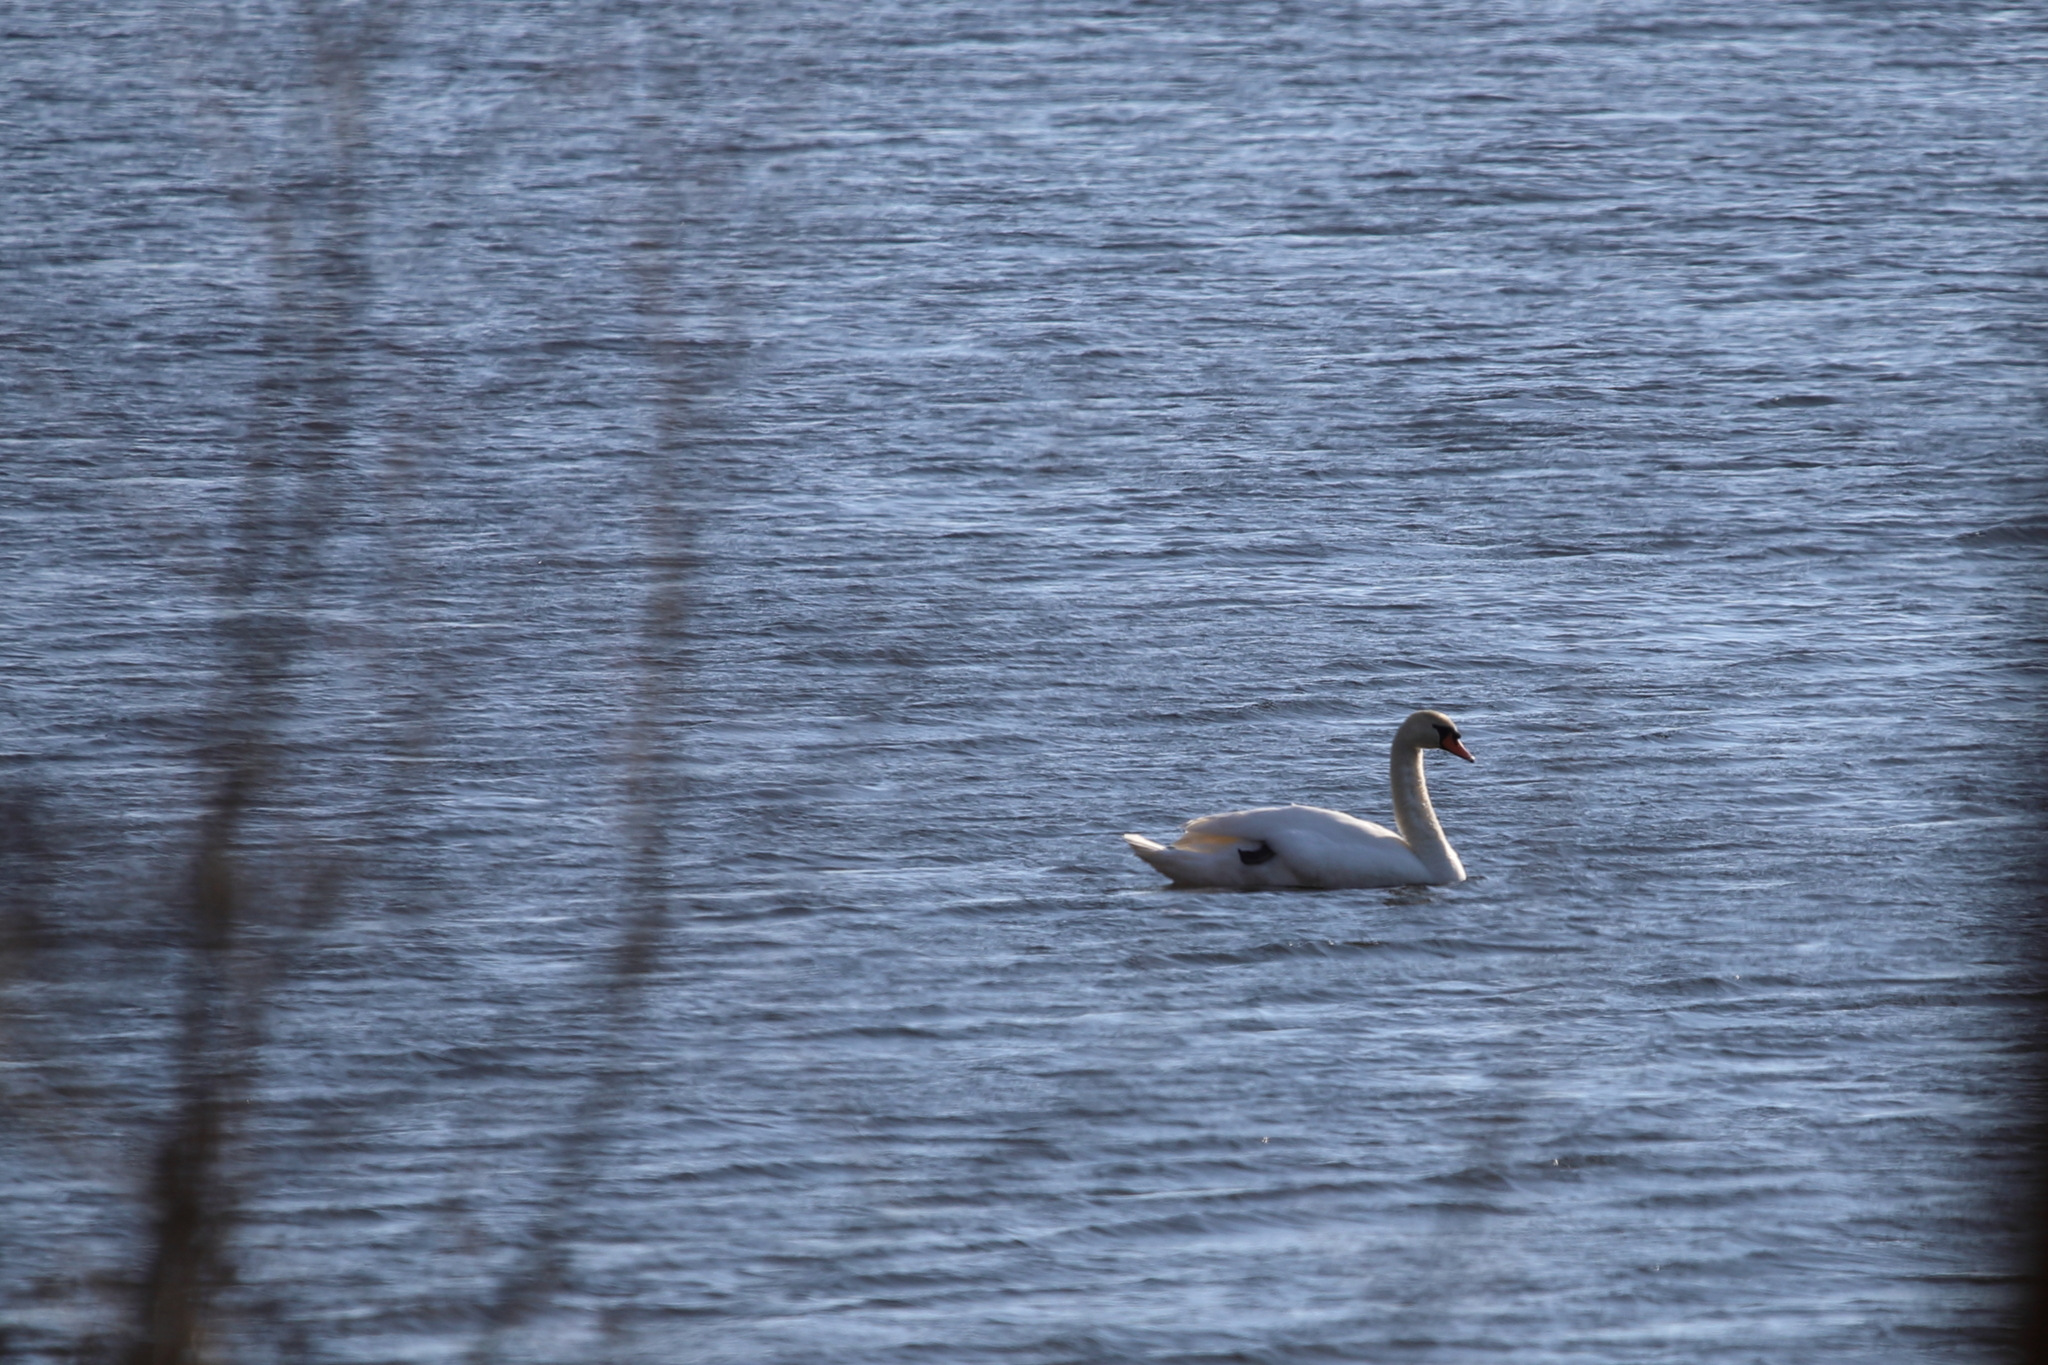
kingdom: Animalia
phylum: Chordata
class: Aves
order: Anseriformes
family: Anatidae
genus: Cygnus
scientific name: Cygnus olor
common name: Mute swan
